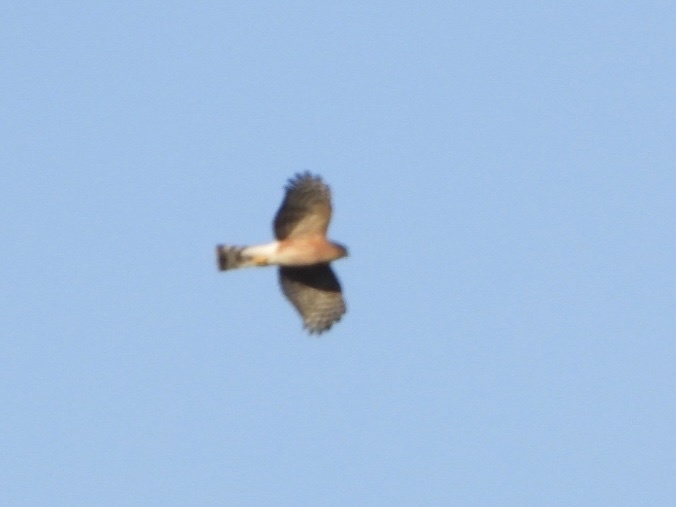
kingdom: Animalia
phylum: Chordata
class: Aves
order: Accipitriformes
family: Accipitridae
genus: Accipiter
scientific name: Accipiter striatus
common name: Sharp-shinned hawk
